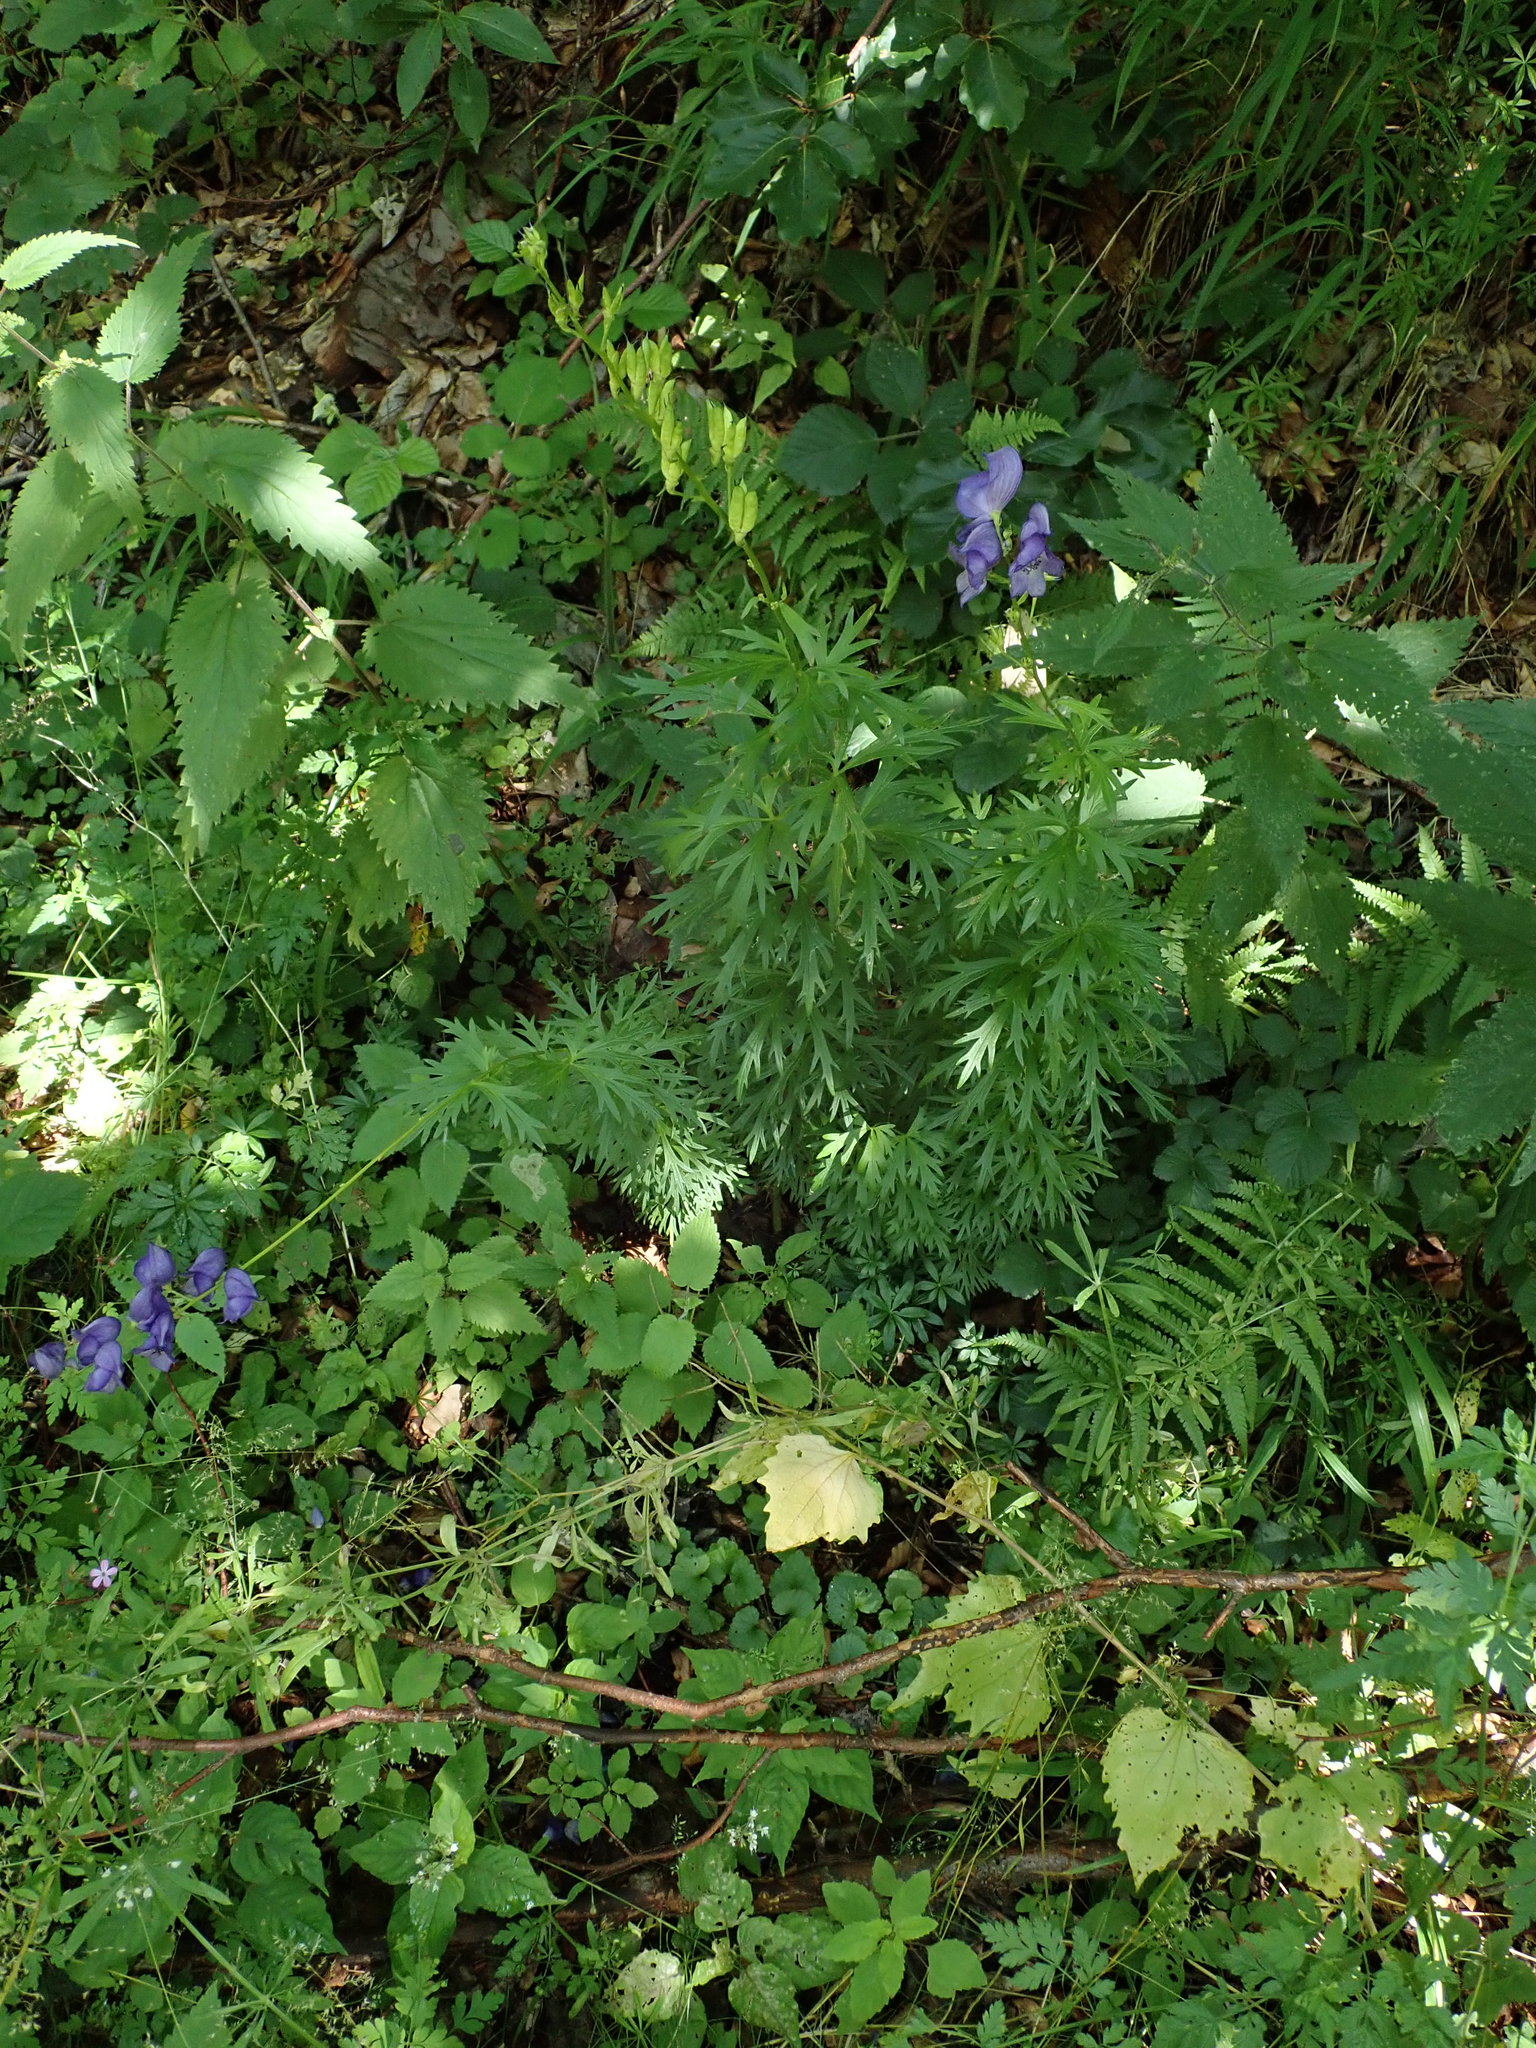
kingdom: Plantae
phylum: Tracheophyta
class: Magnoliopsida
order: Ranunculales
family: Ranunculaceae
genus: Aconitum
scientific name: Aconitum napellus
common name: Garden monkshood
